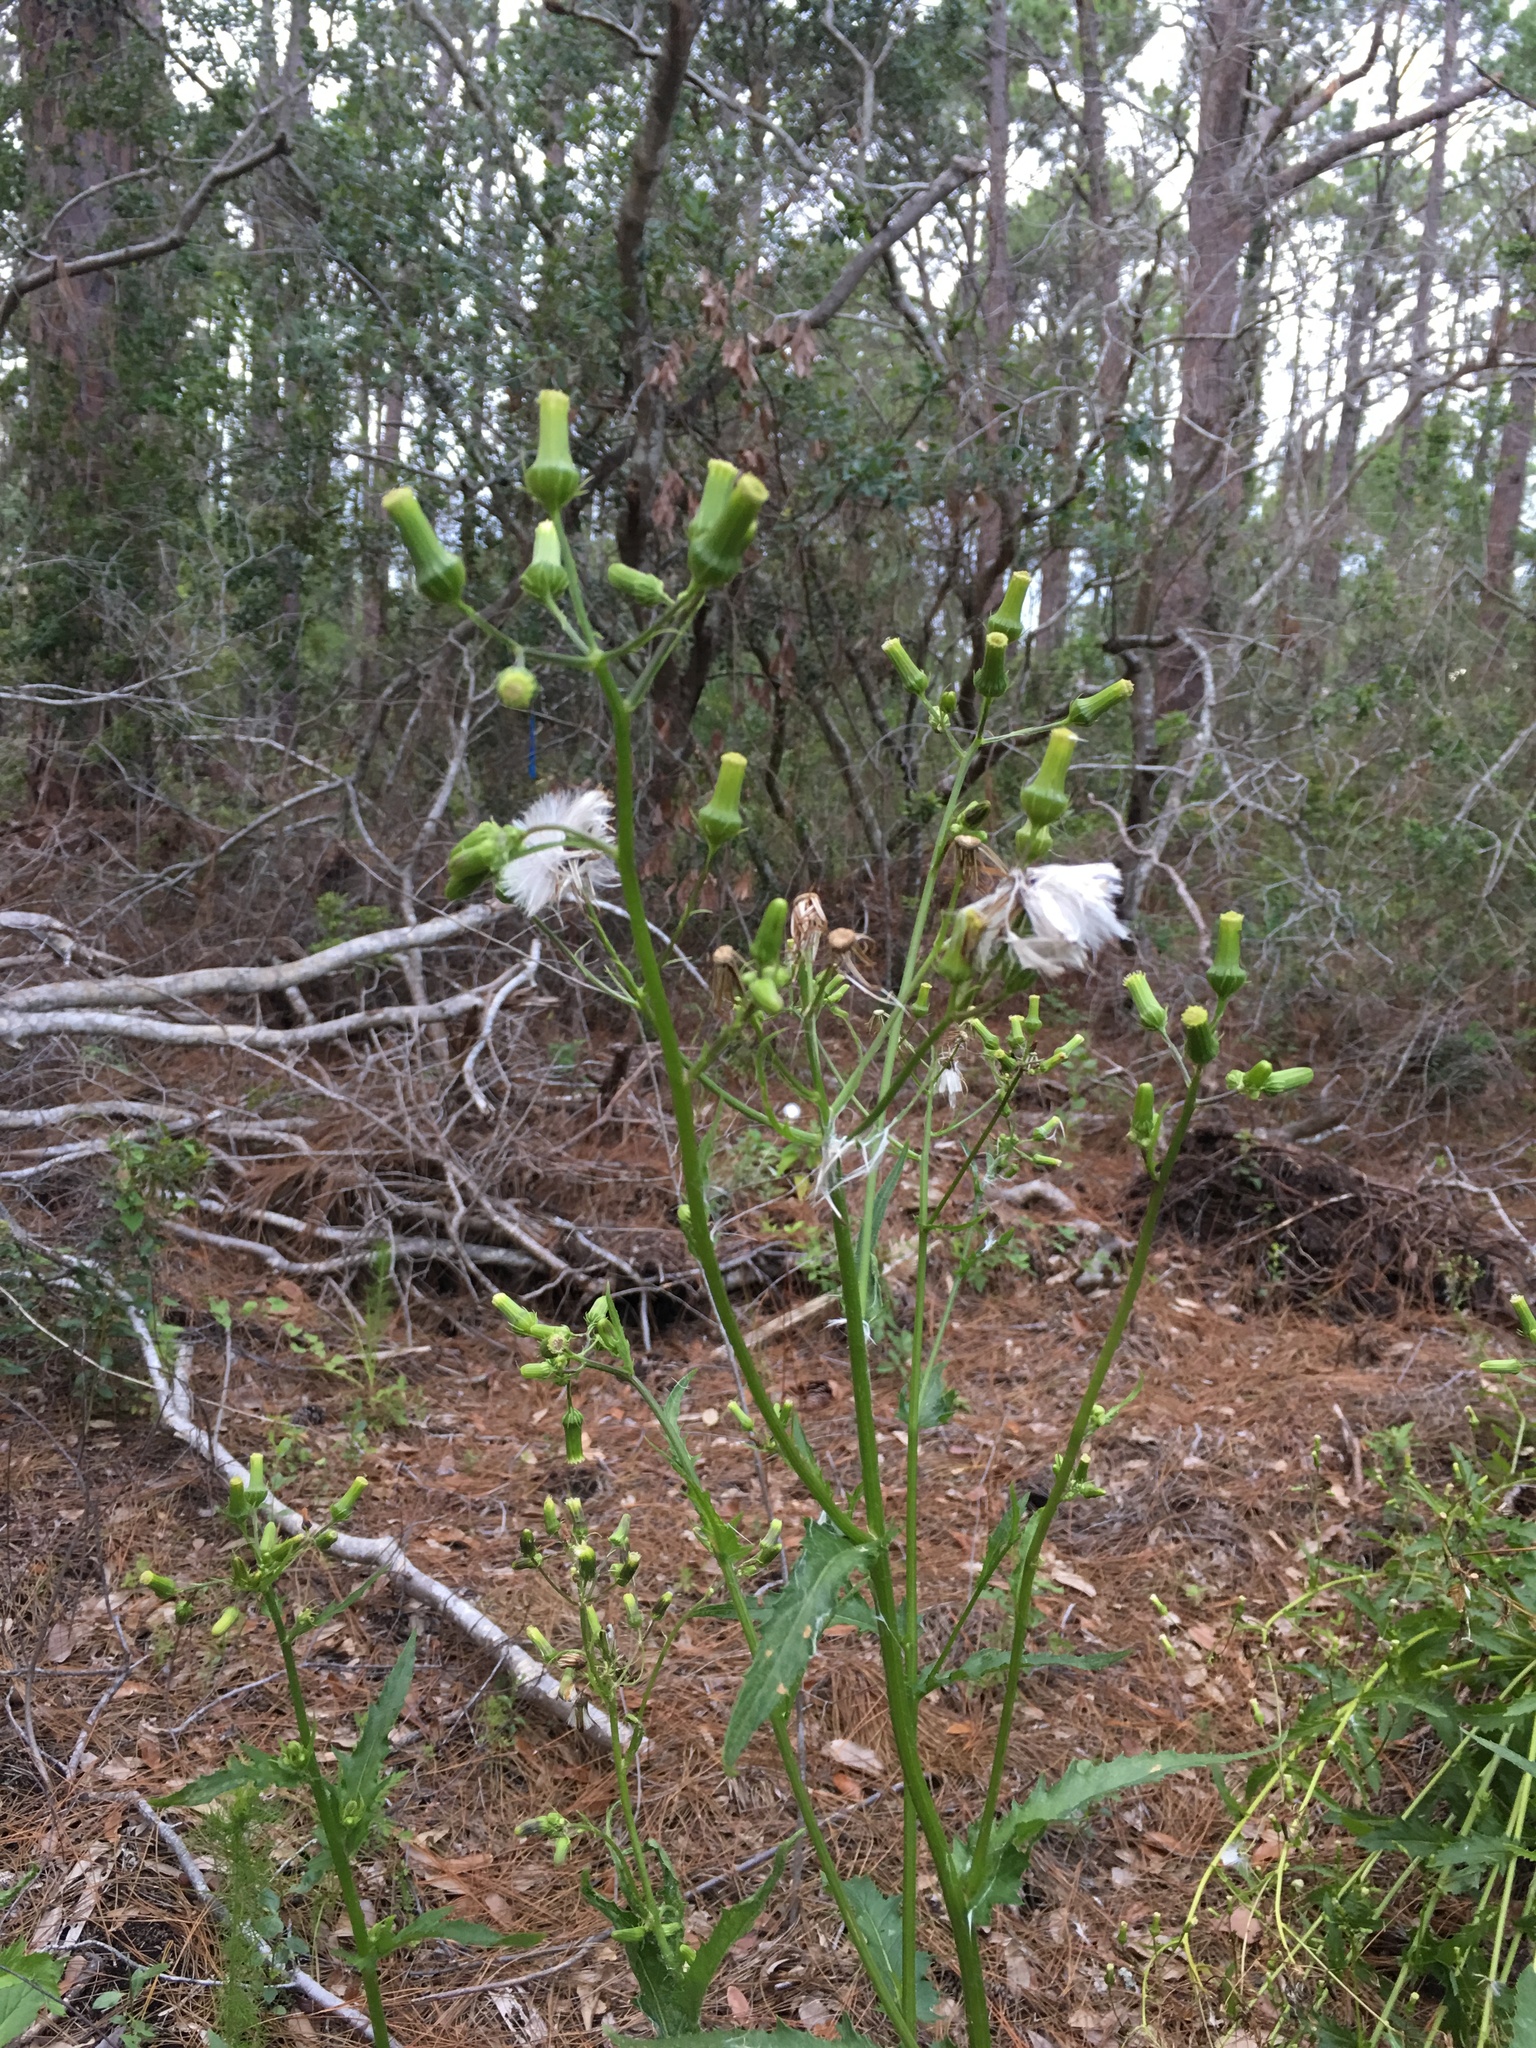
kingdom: Plantae
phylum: Tracheophyta
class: Magnoliopsida
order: Asterales
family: Asteraceae
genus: Erechtites
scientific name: Erechtites hieraciifolius
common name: American burnweed
